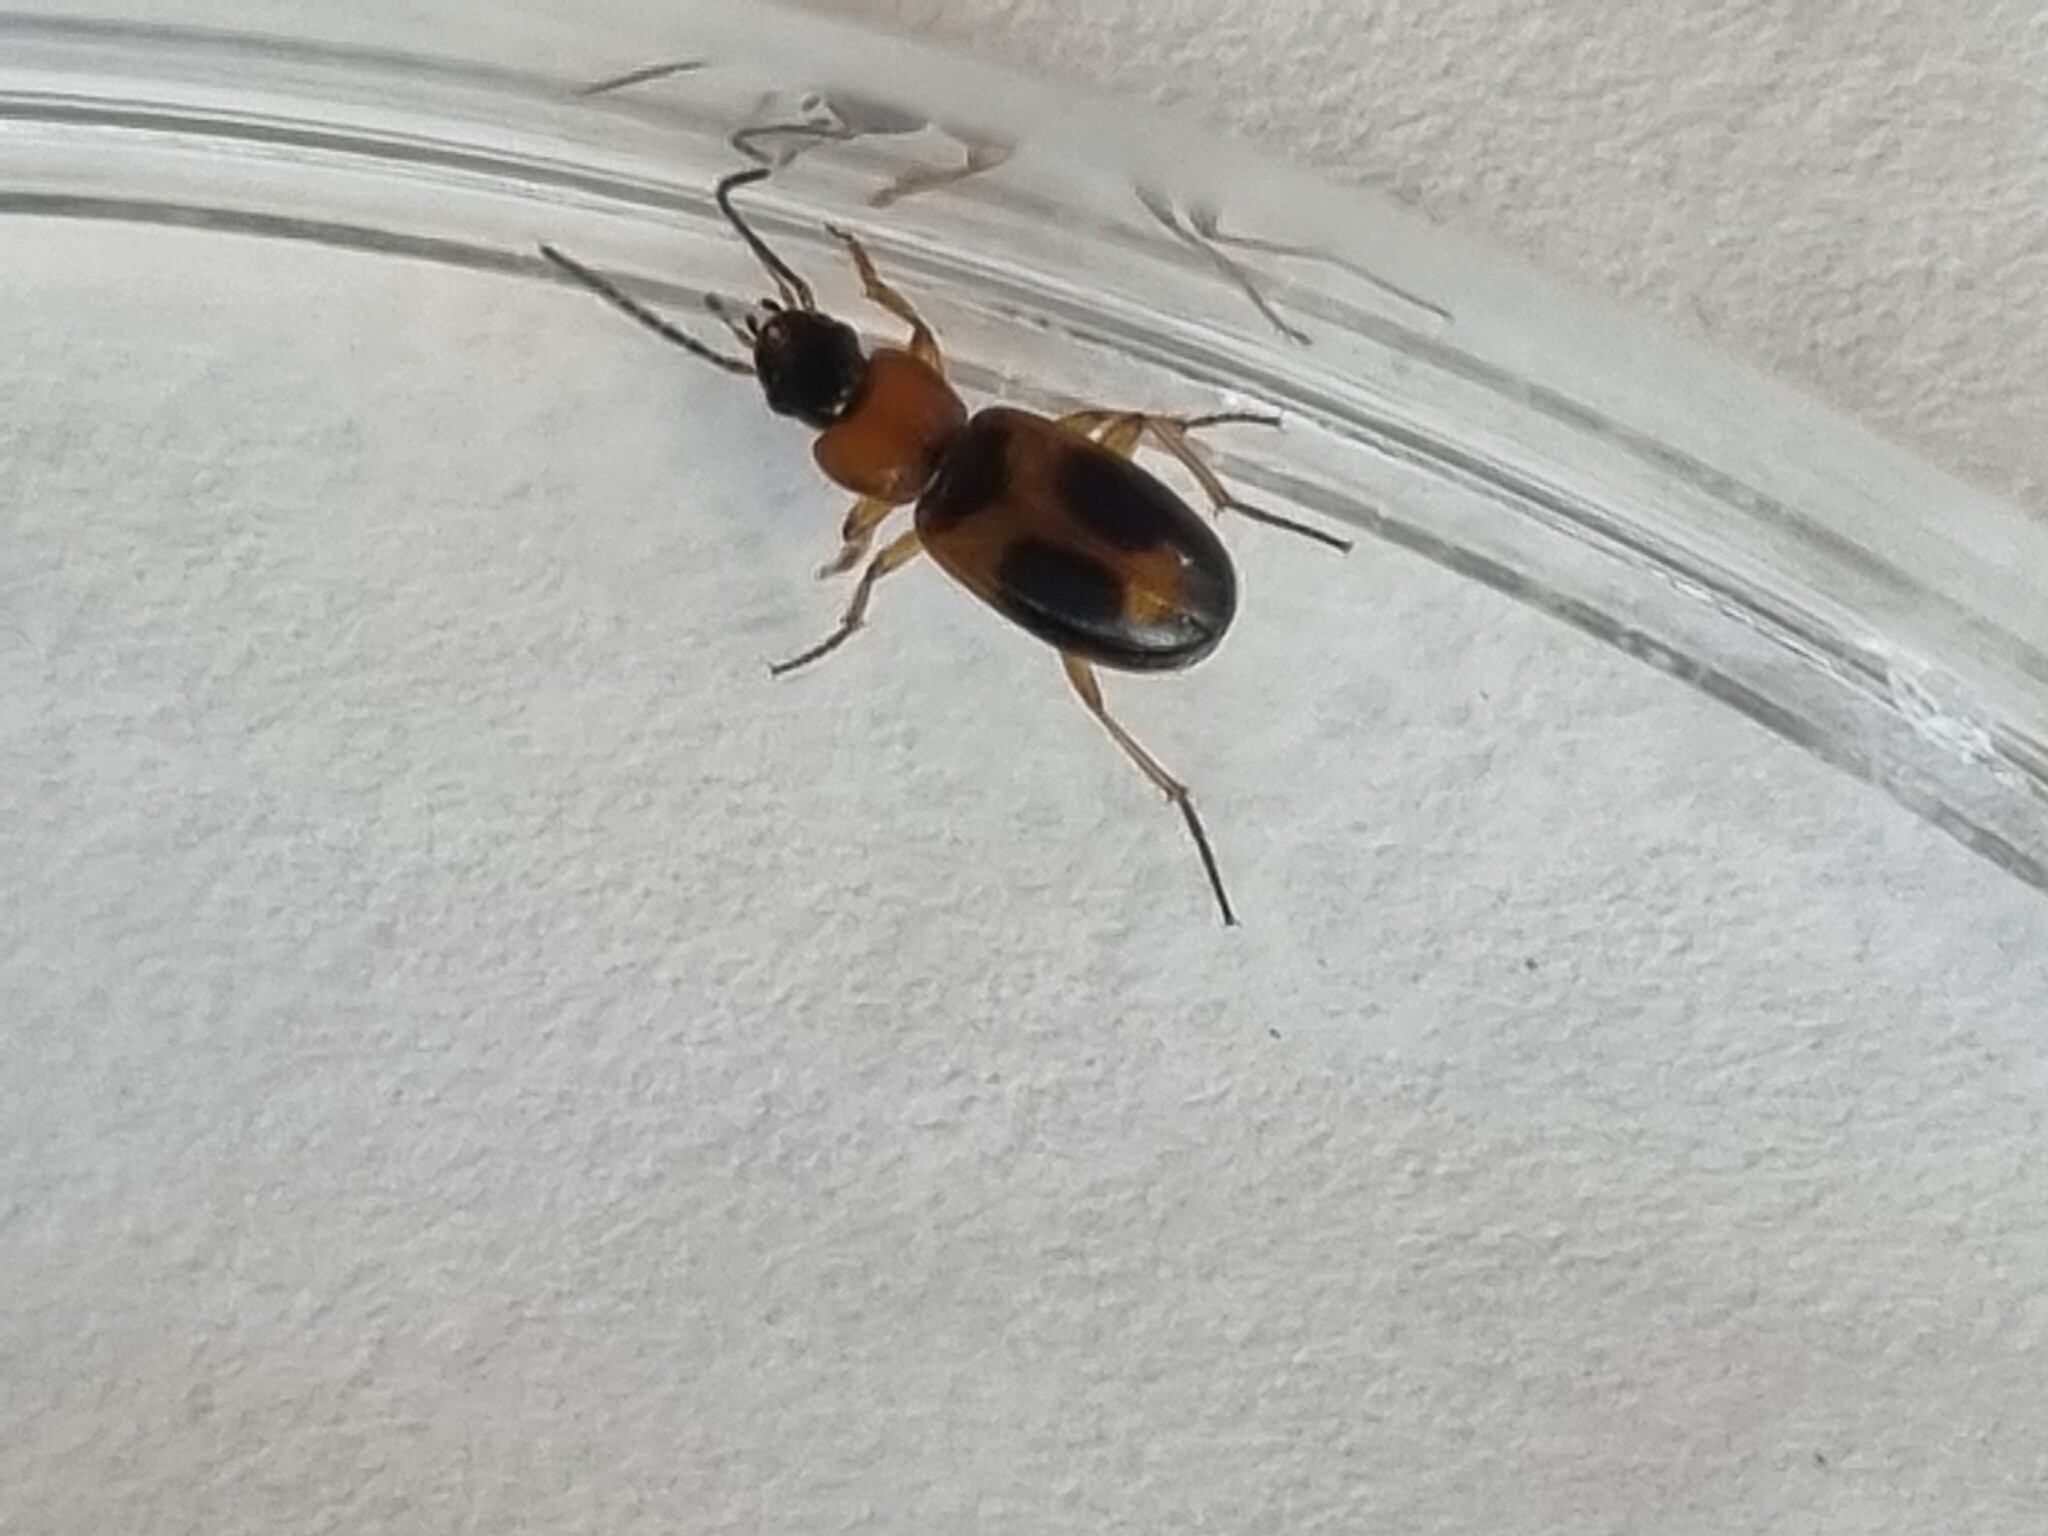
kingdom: Animalia
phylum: Arthropoda
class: Insecta
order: Coleoptera
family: Carabidae
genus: Badister
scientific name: Badister bullatus
